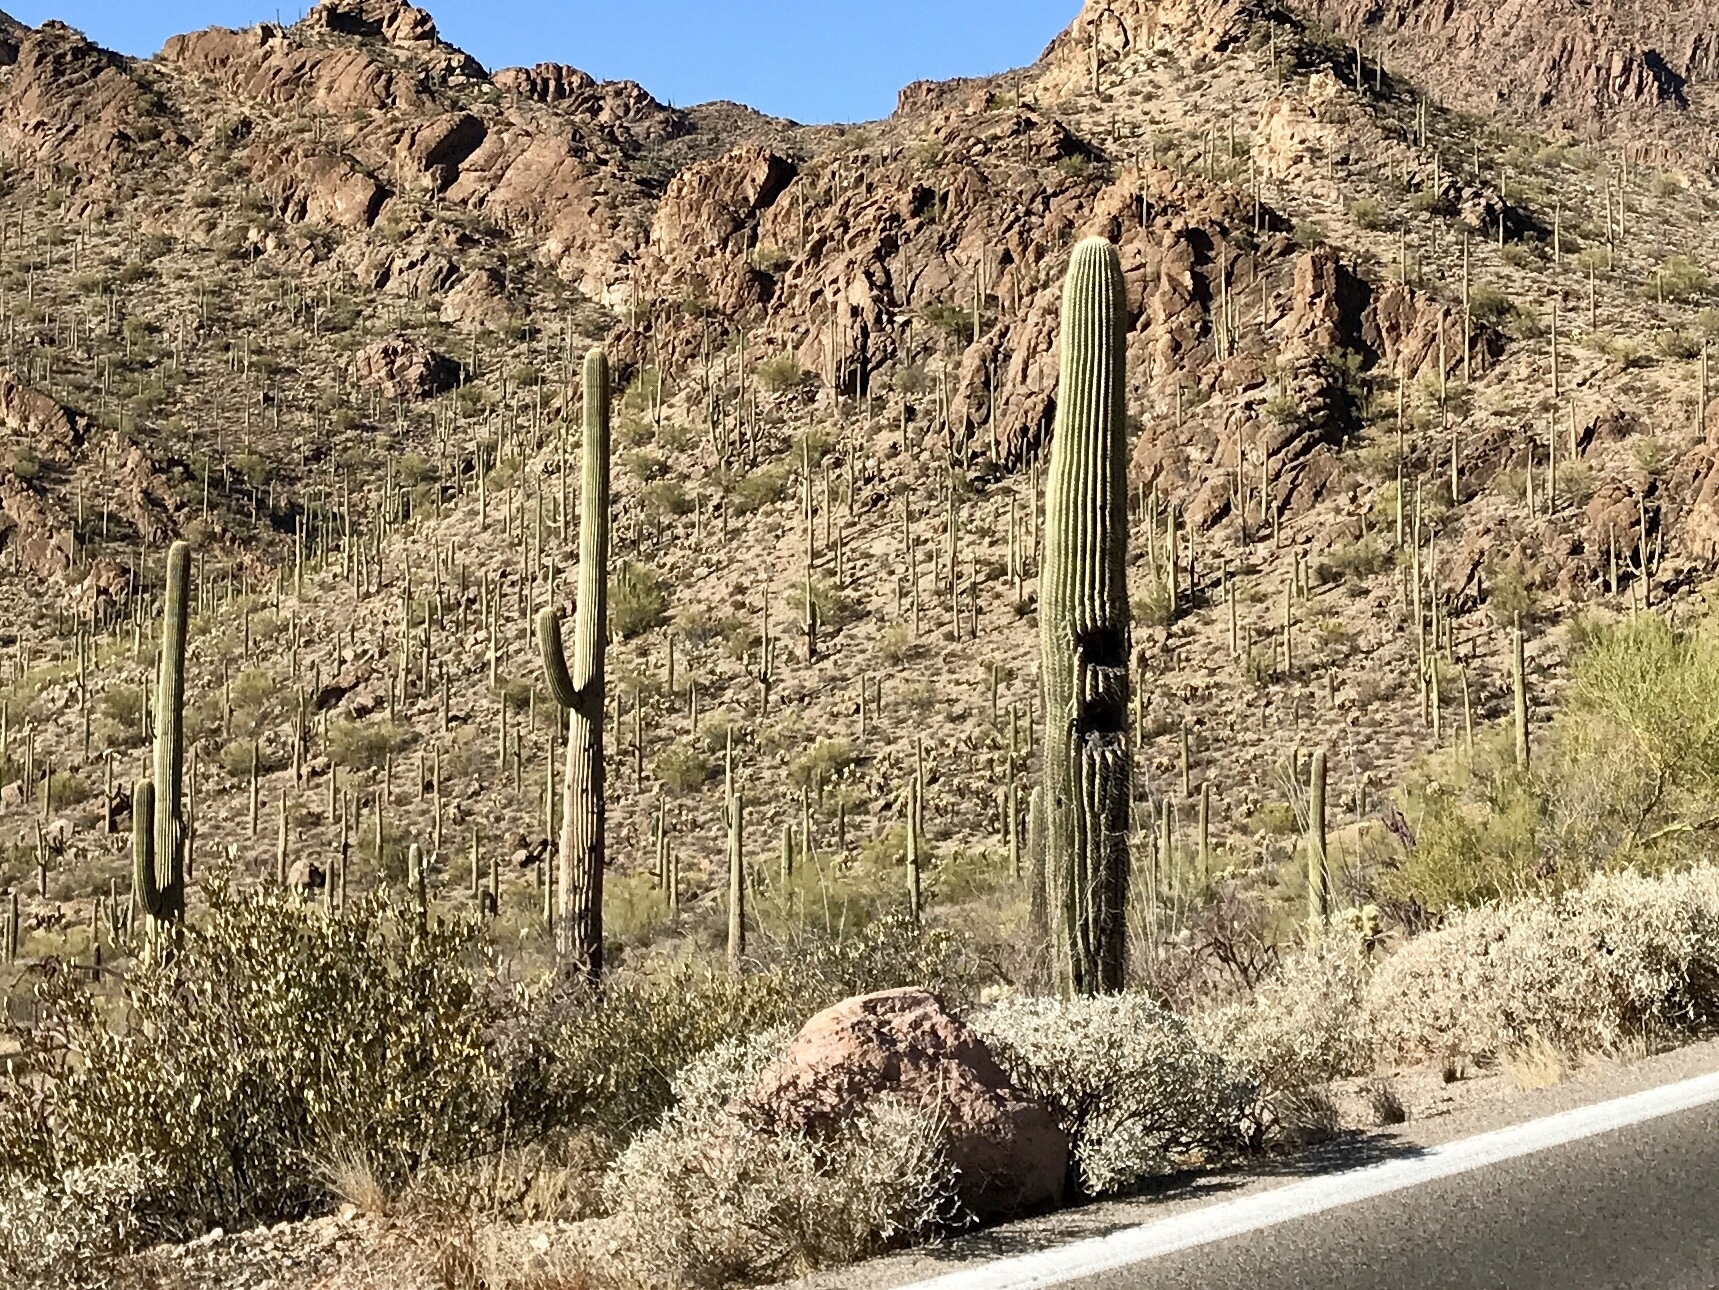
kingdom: Plantae
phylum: Tracheophyta
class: Magnoliopsida
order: Caryophyllales
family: Cactaceae
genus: Carnegiea
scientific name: Carnegiea gigantea
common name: Saguaro
